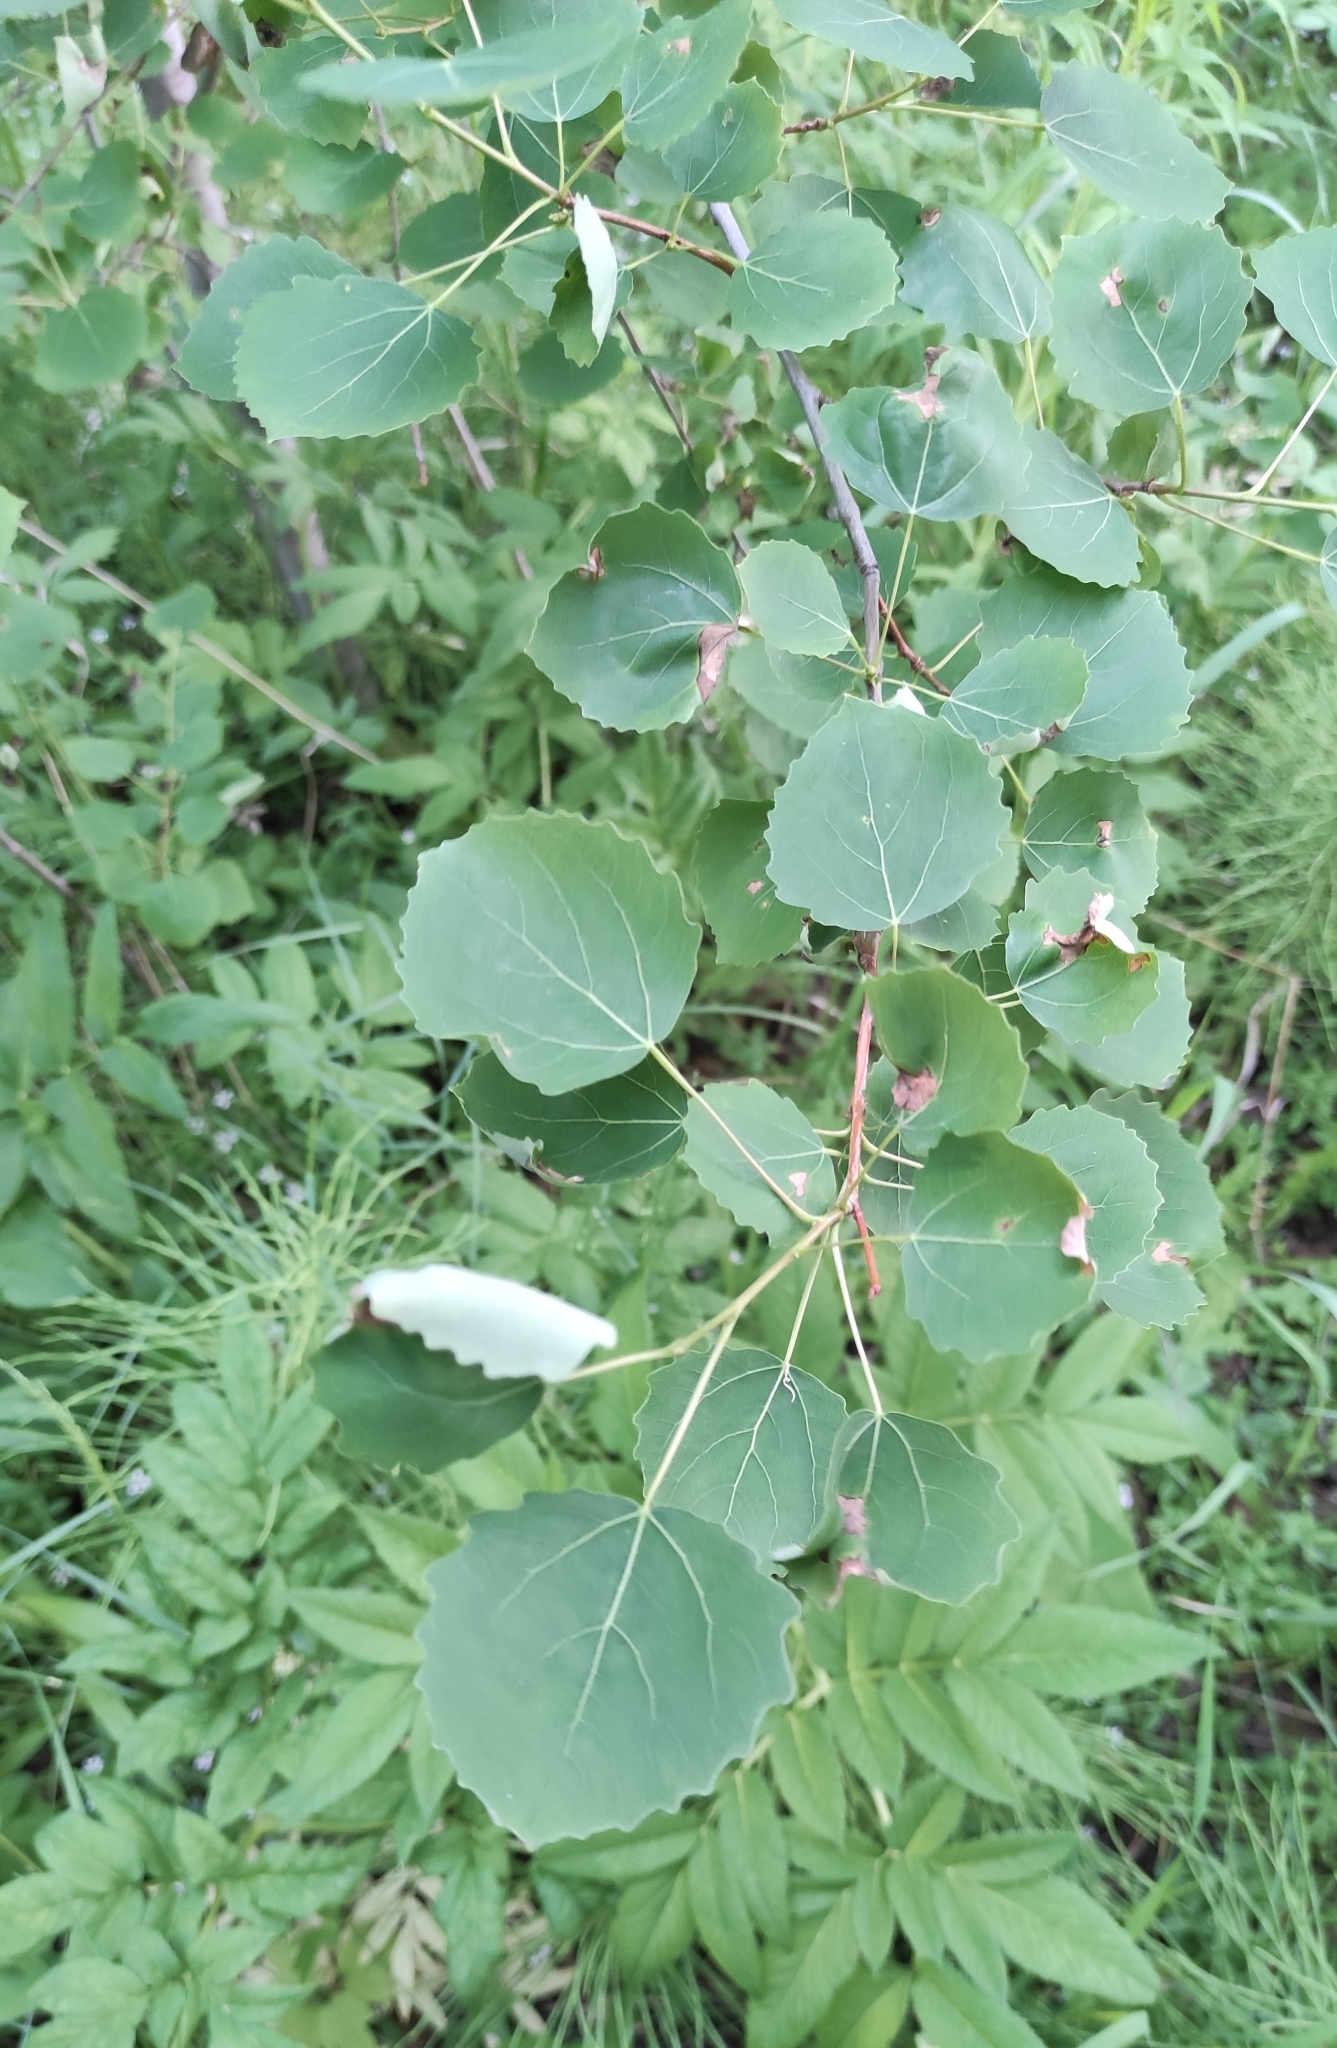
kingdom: Plantae
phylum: Tracheophyta
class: Magnoliopsida
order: Malpighiales
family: Salicaceae
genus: Populus
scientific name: Populus tremula
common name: European aspen
